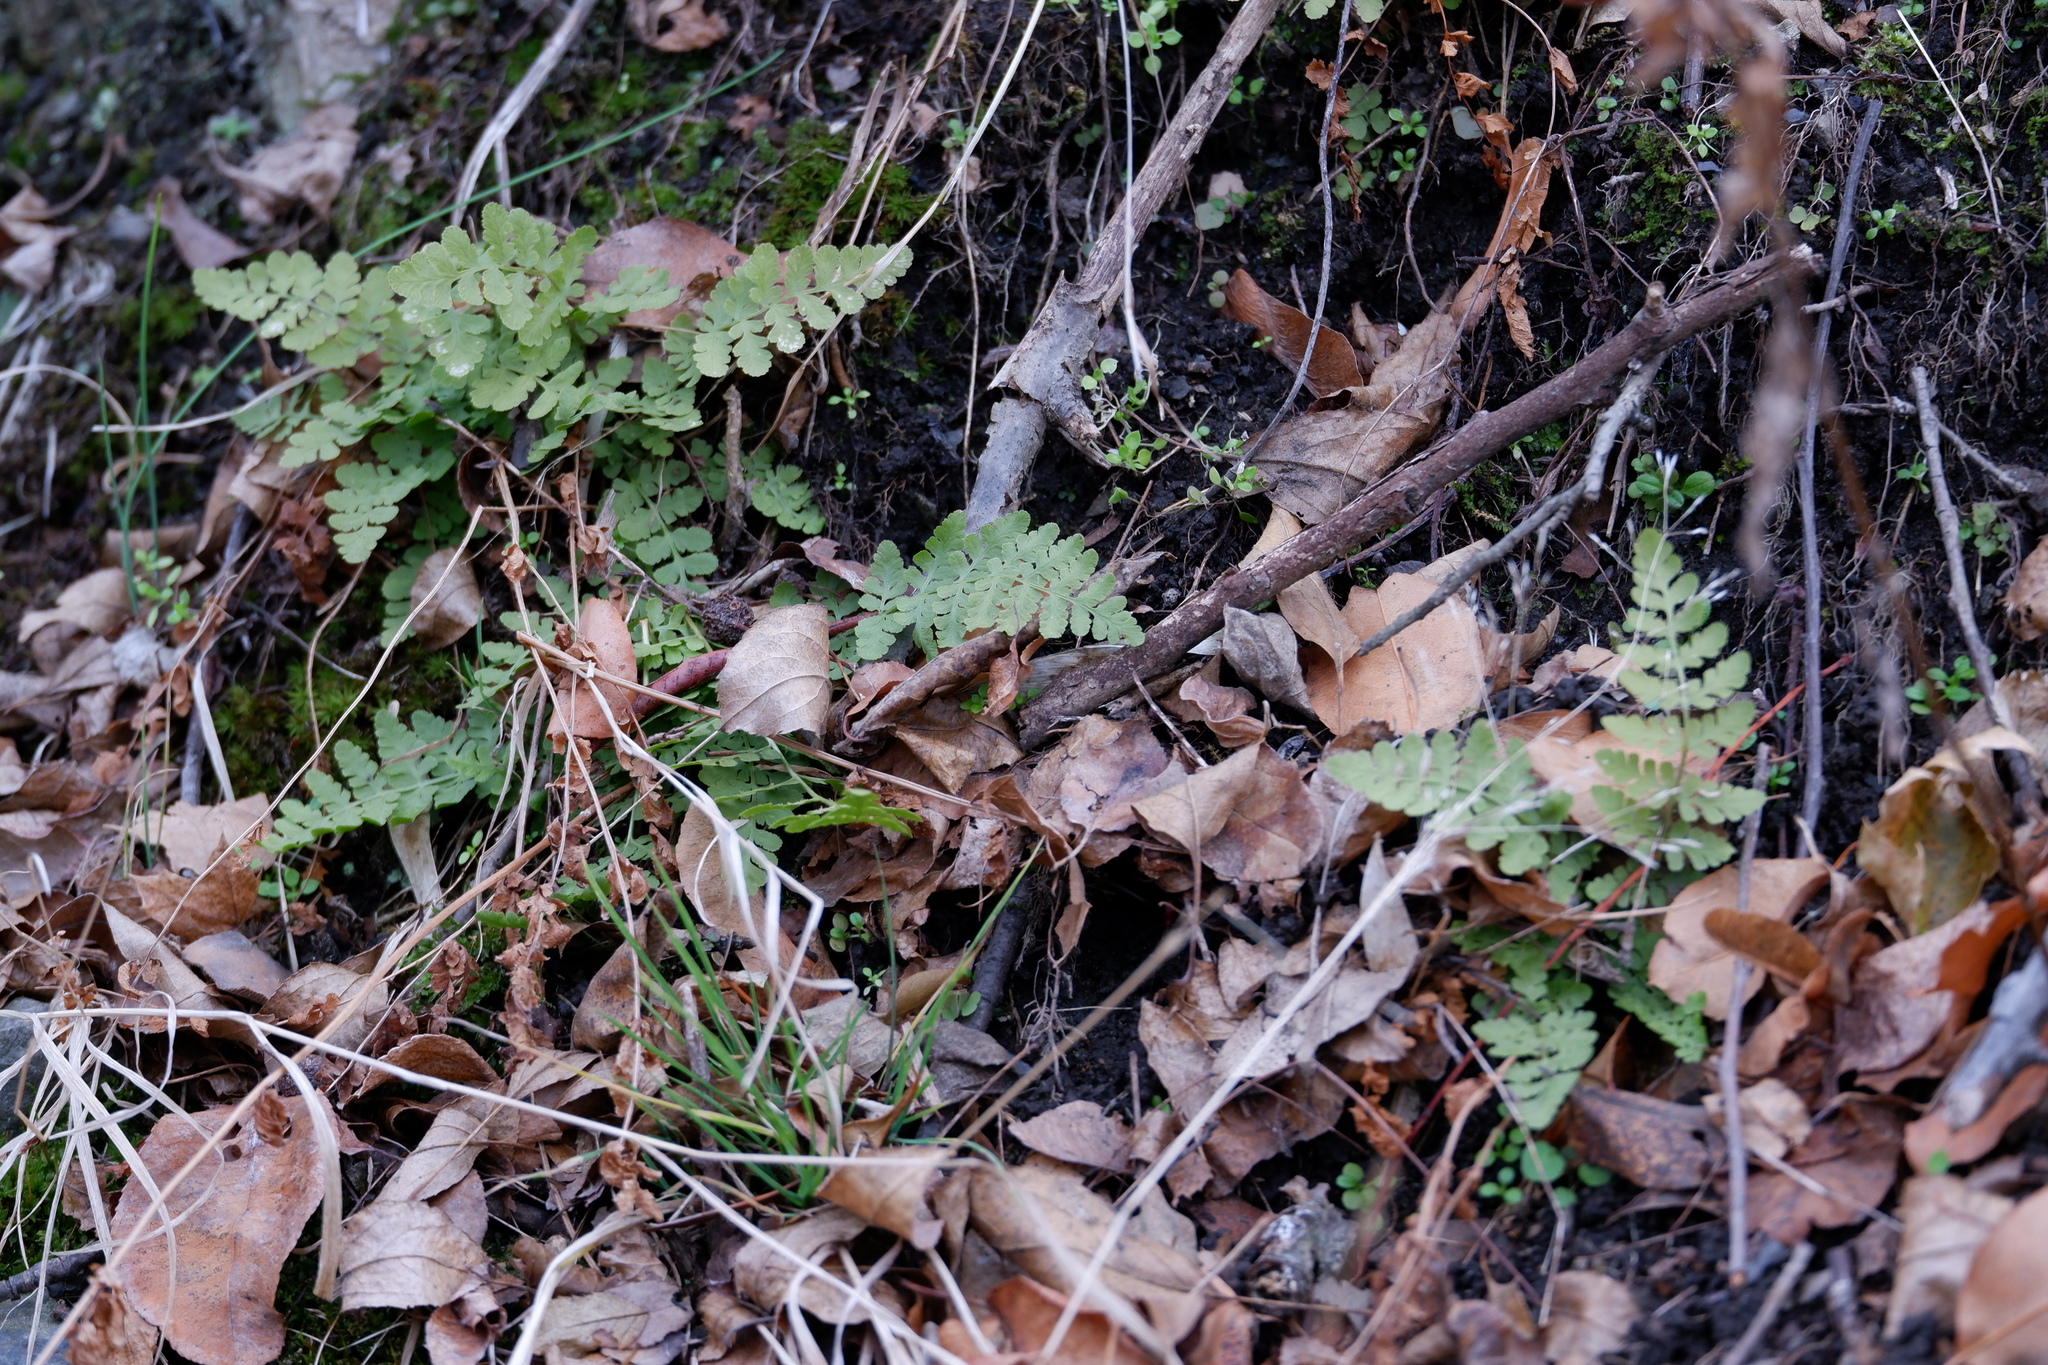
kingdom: Plantae
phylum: Tracheophyta
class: Polypodiopsida
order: Polypodiales
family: Woodsiaceae
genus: Physematium
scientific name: Physematium obtusum
